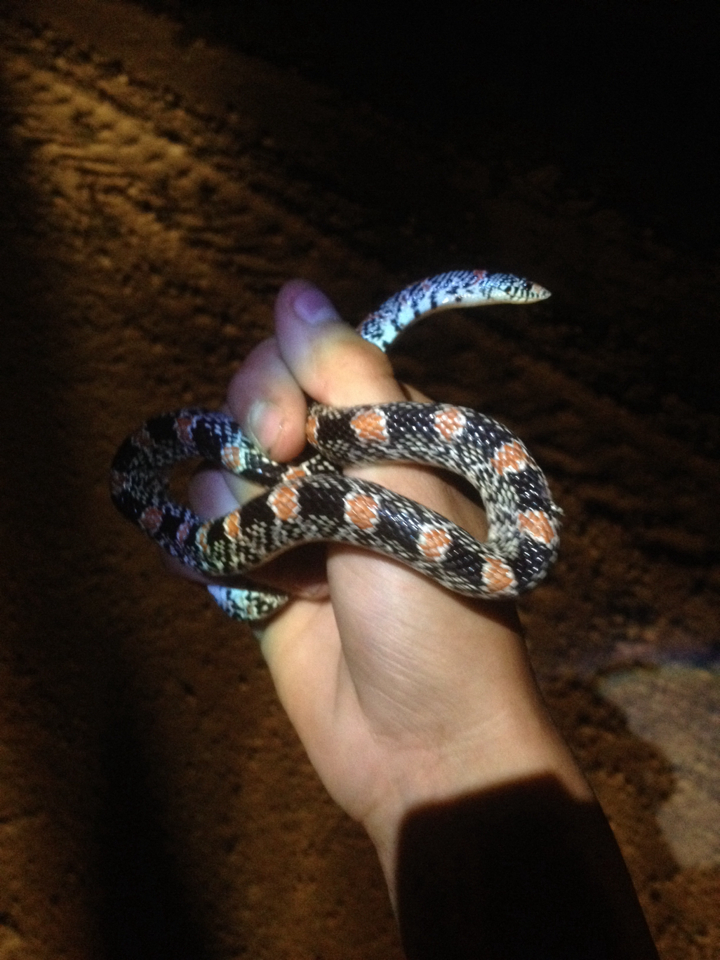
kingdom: Animalia
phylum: Chordata
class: Squamata
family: Colubridae
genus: Rhinocheilus
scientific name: Rhinocheilus lecontei
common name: Longnose snake
